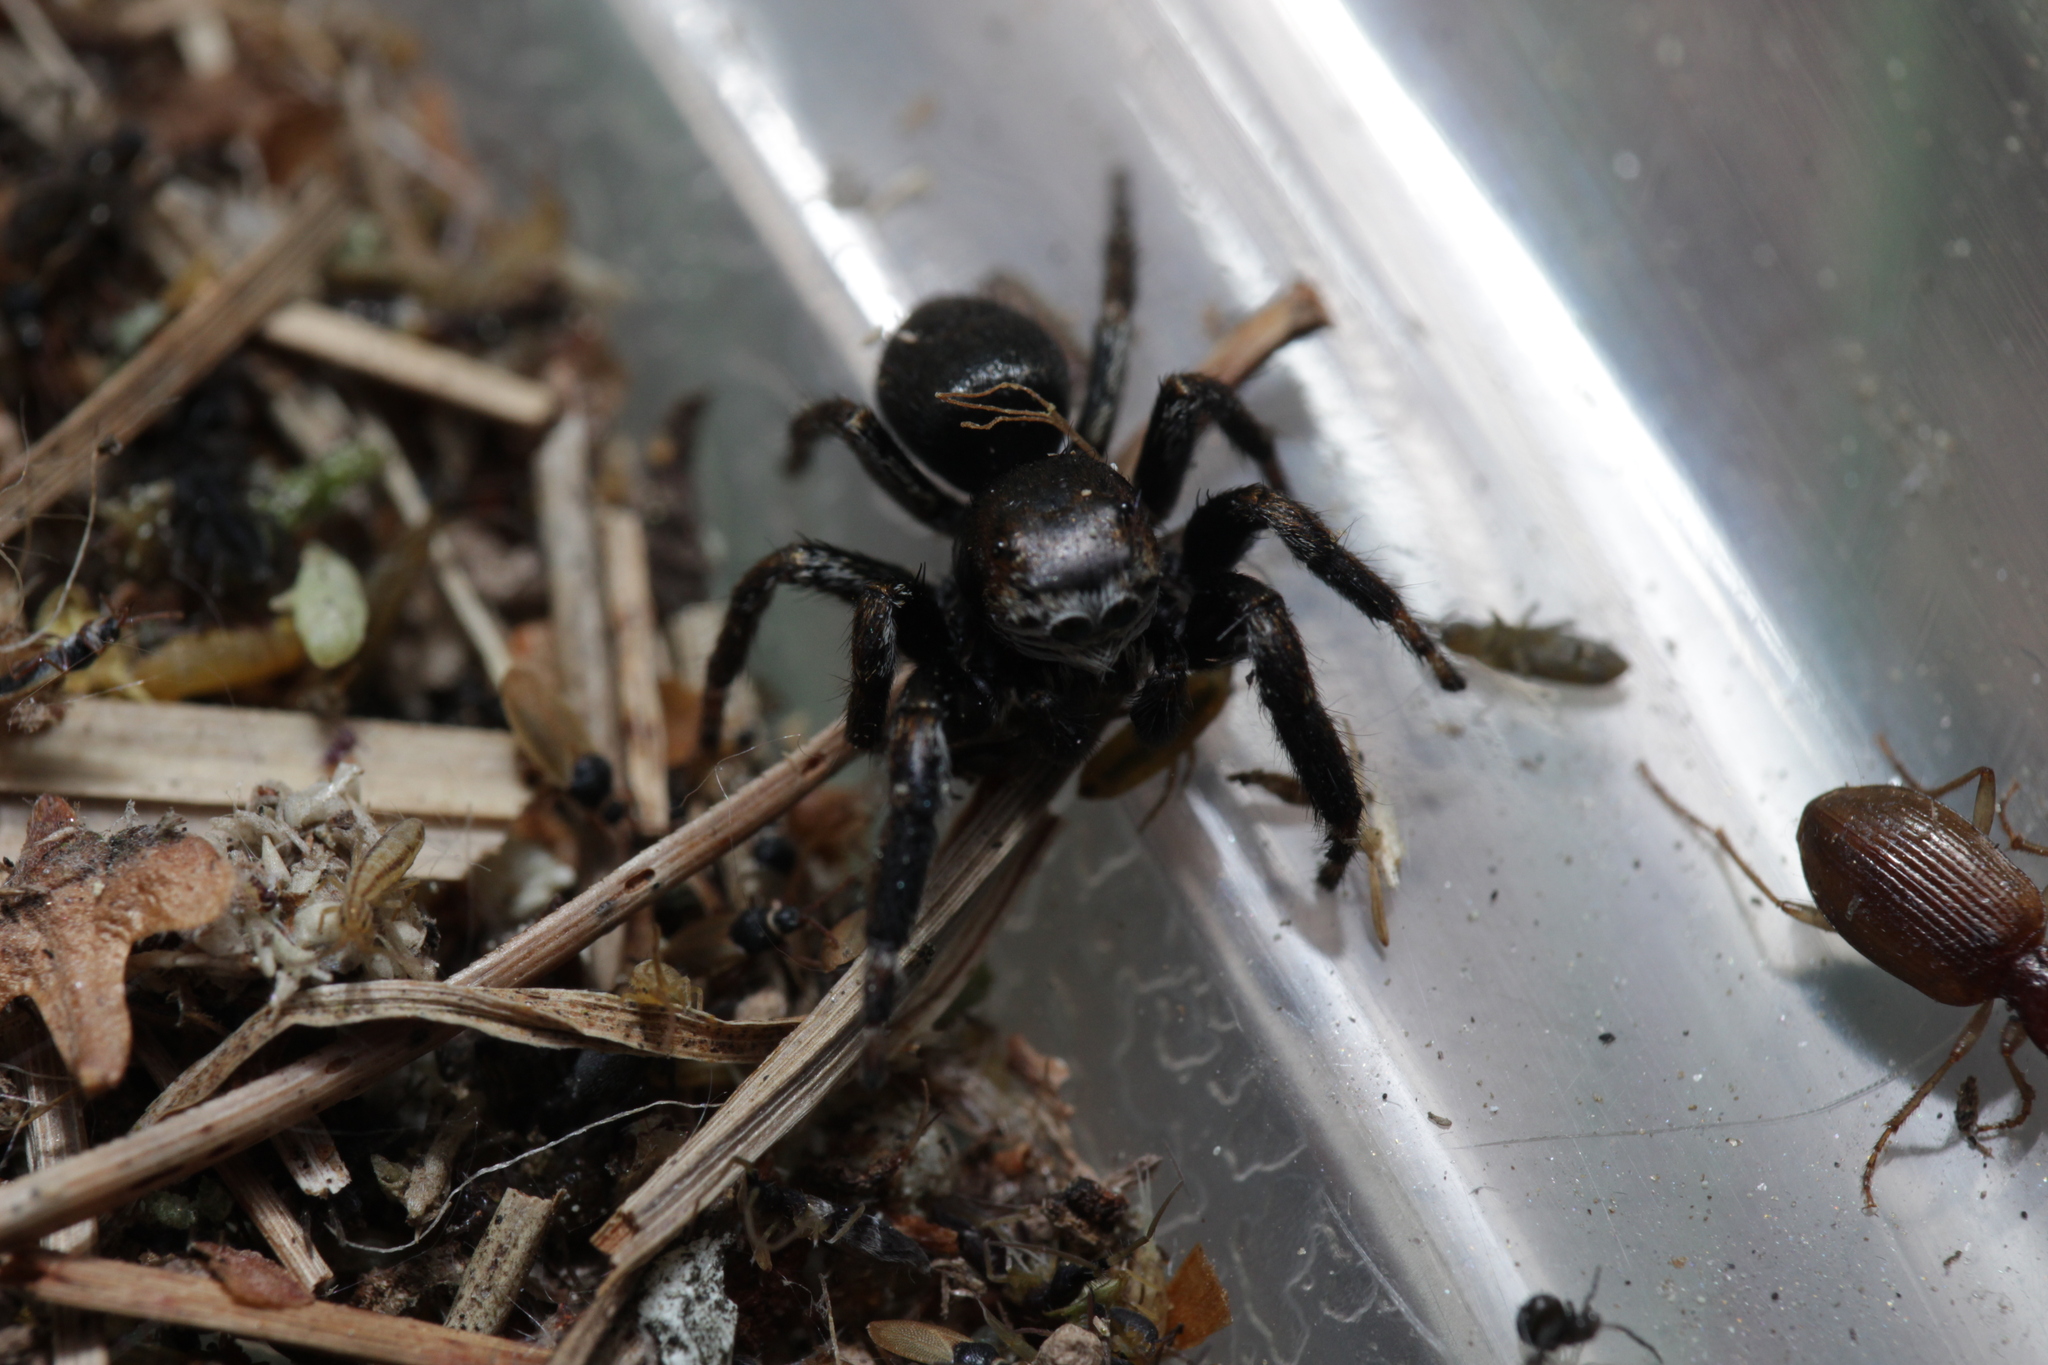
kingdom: Animalia
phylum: Arthropoda
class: Arachnida
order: Araneae
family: Salticidae
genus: Evarcha
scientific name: Evarcha arcuata
